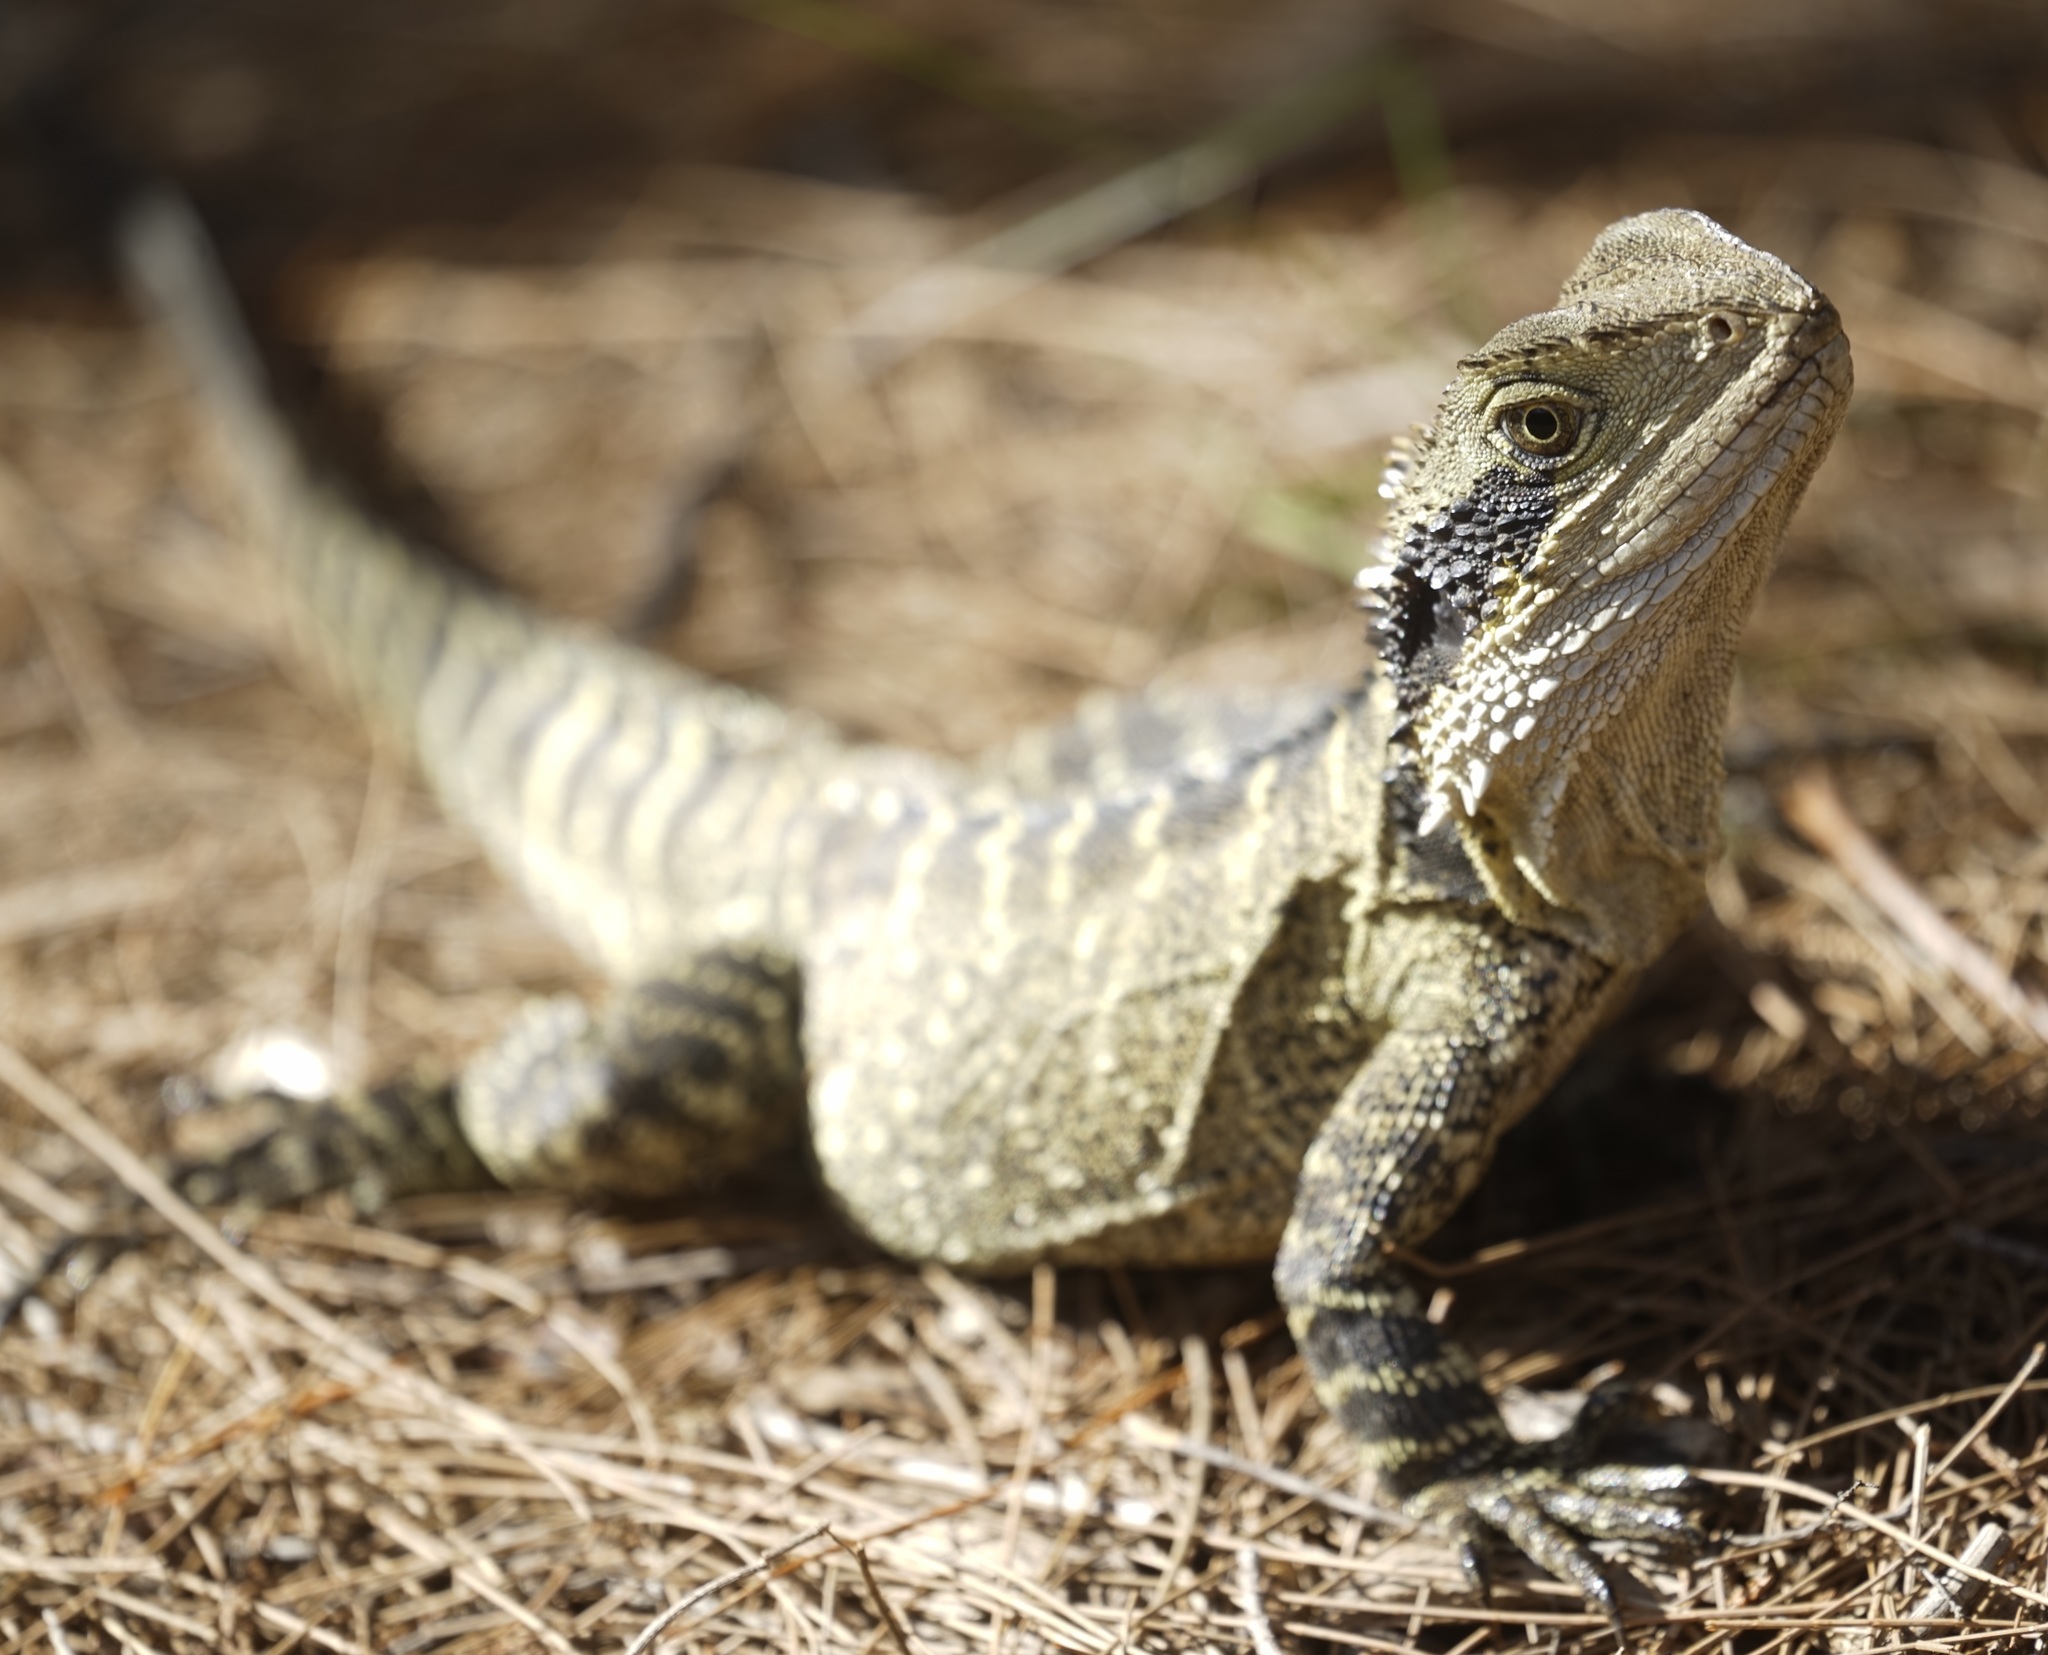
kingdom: Animalia
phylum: Chordata
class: Squamata
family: Agamidae
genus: Intellagama
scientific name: Intellagama lesueurii
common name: Eastern water dragon
